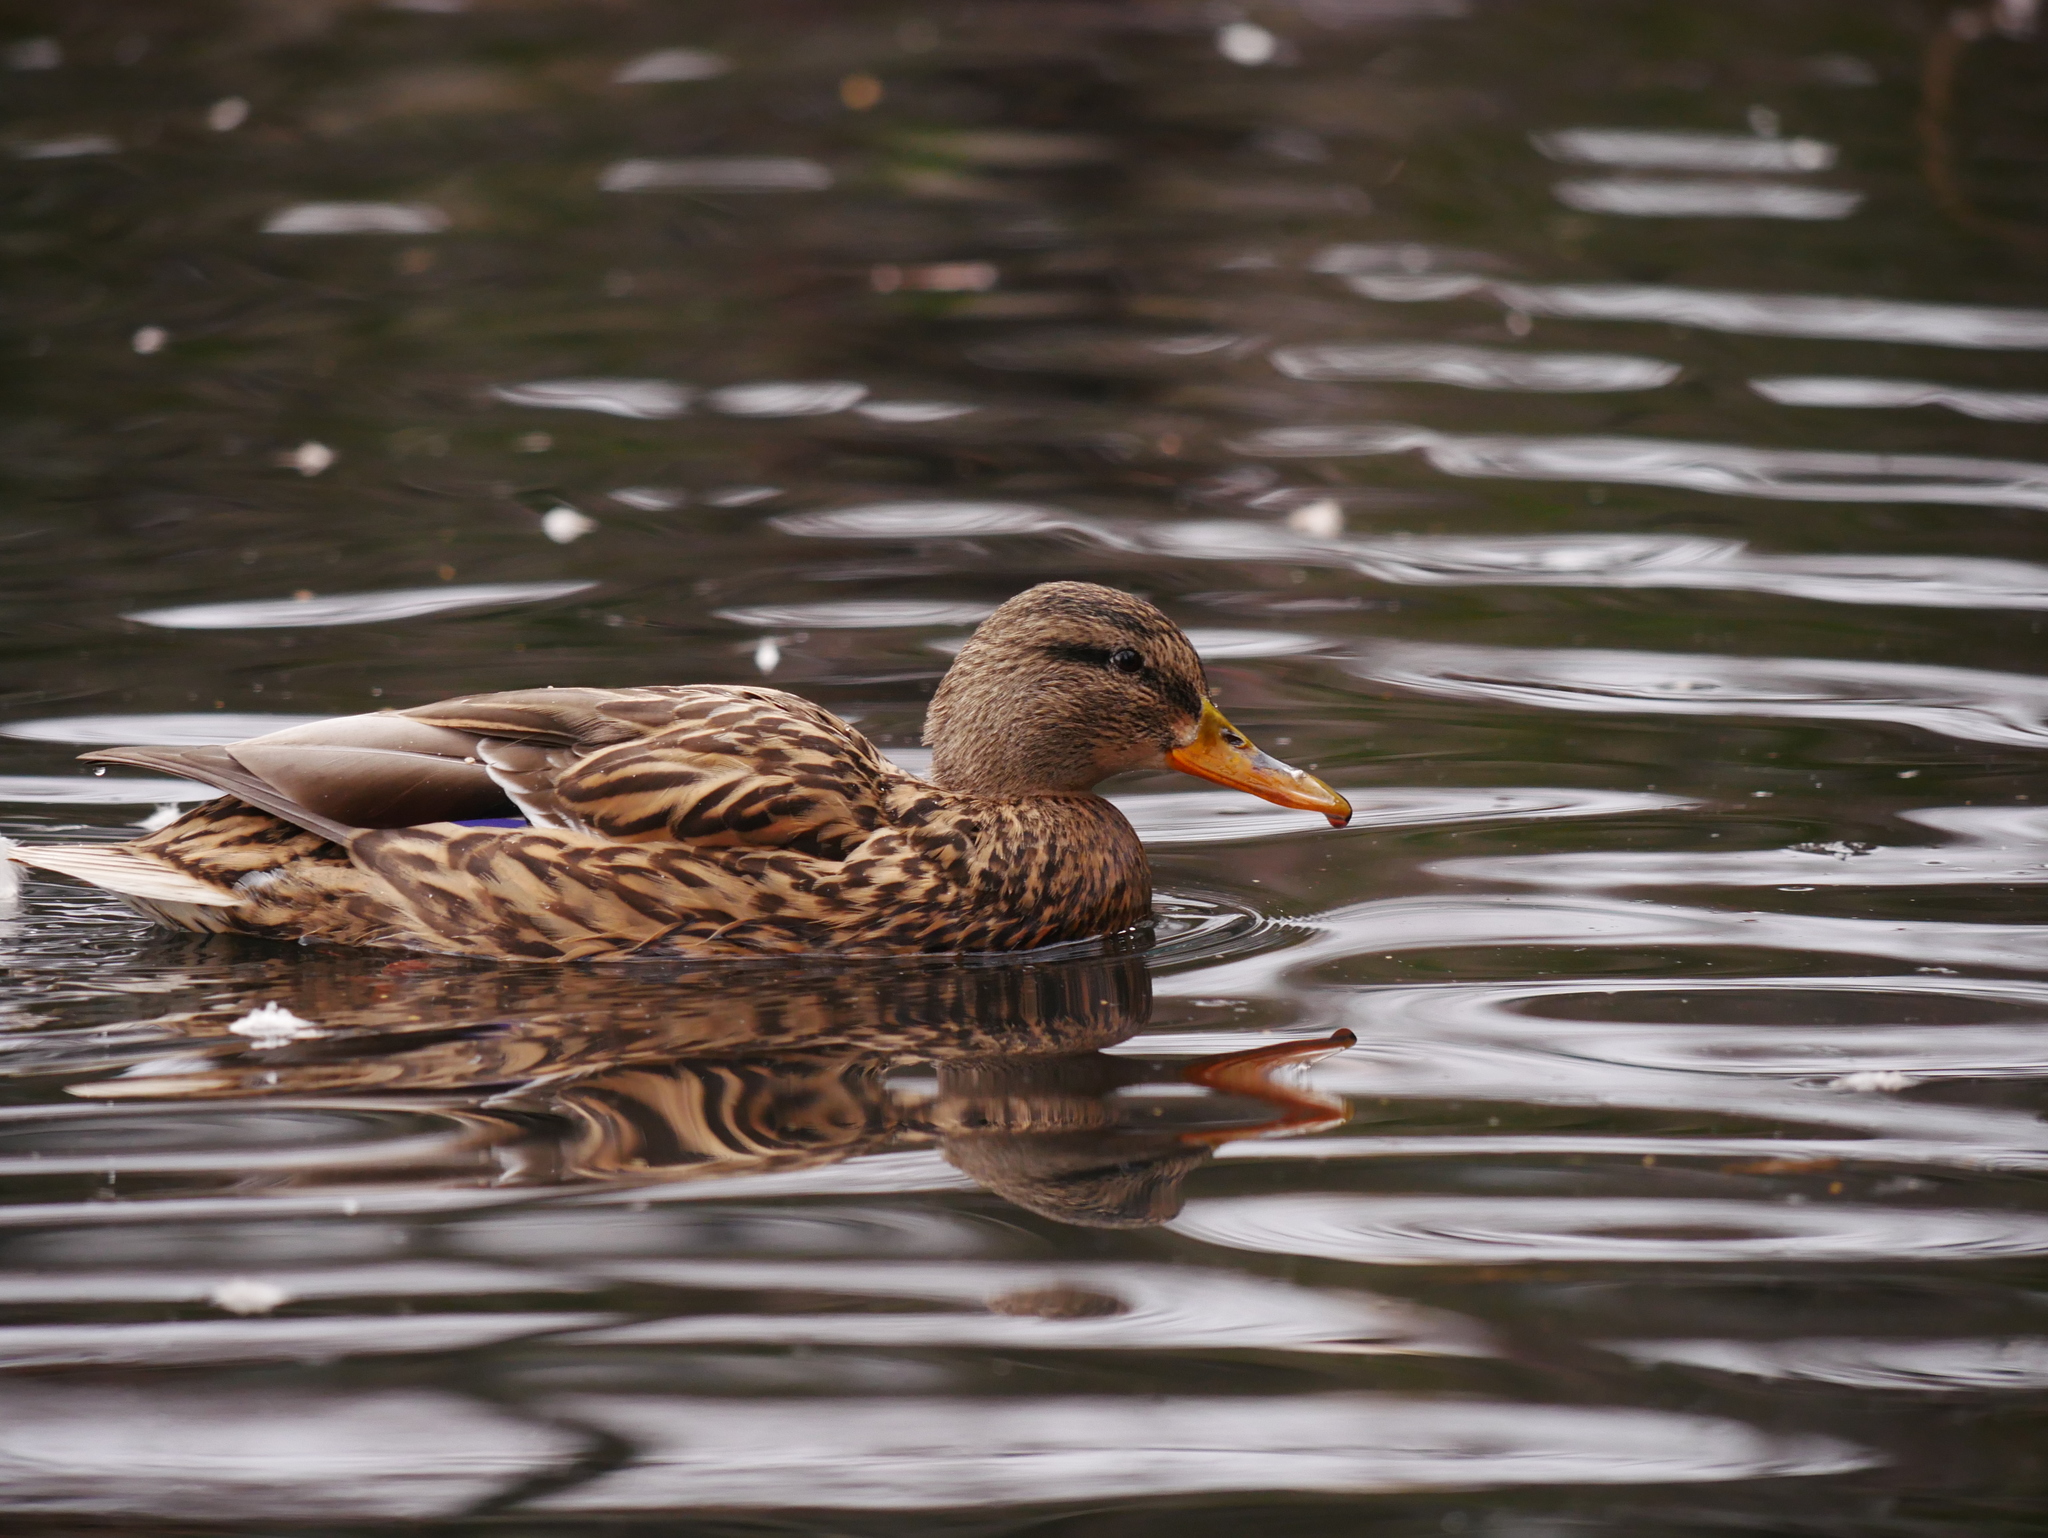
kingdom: Animalia
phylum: Chordata
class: Aves
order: Anseriformes
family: Anatidae
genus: Anas
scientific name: Anas platyrhynchos
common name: Mallard
